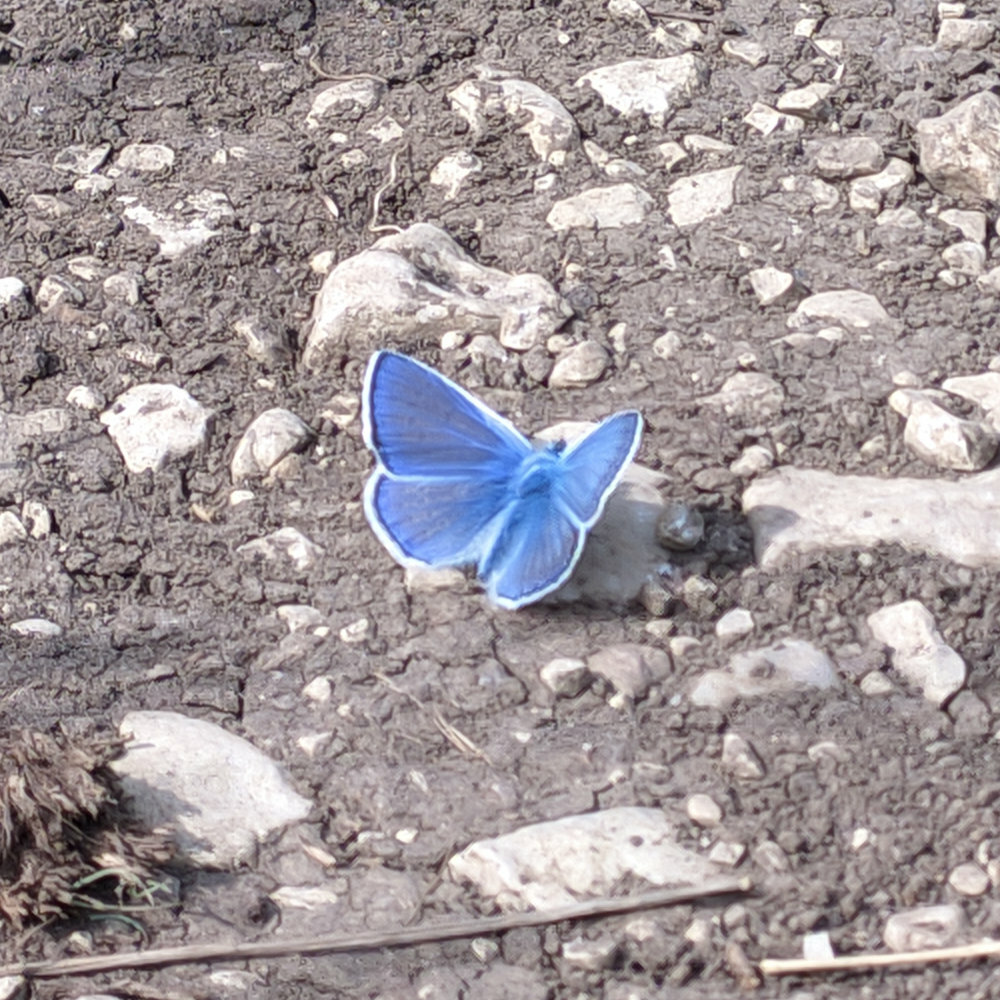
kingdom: Animalia
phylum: Arthropoda
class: Insecta
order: Lepidoptera
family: Lycaenidae
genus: Polyommatus
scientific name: Polyommatus icarus
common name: Common blue
